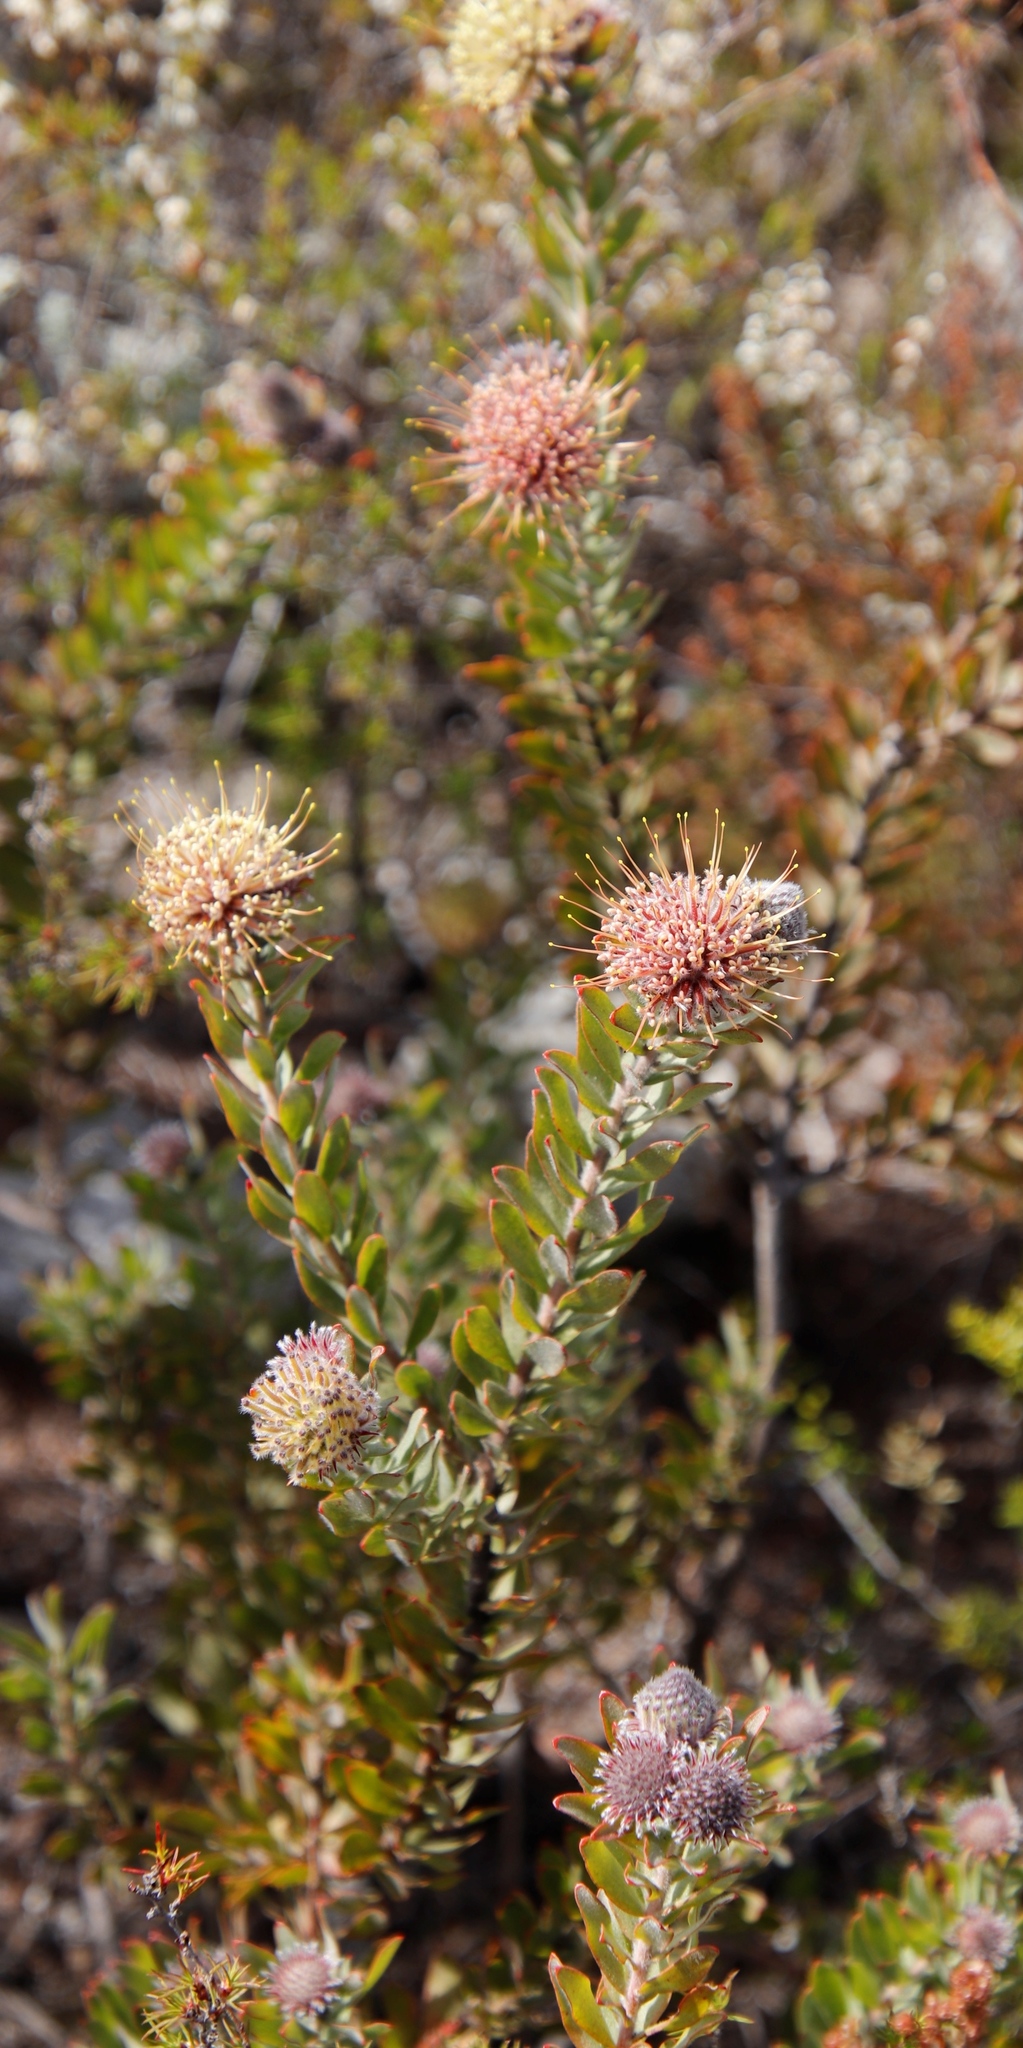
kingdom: Plantae
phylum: Tracheophyta
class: Magnoliopsida
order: Proteales
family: Proteaceae
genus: Leucospermum
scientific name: Leucospermum calligerum
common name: Arid pincushion
